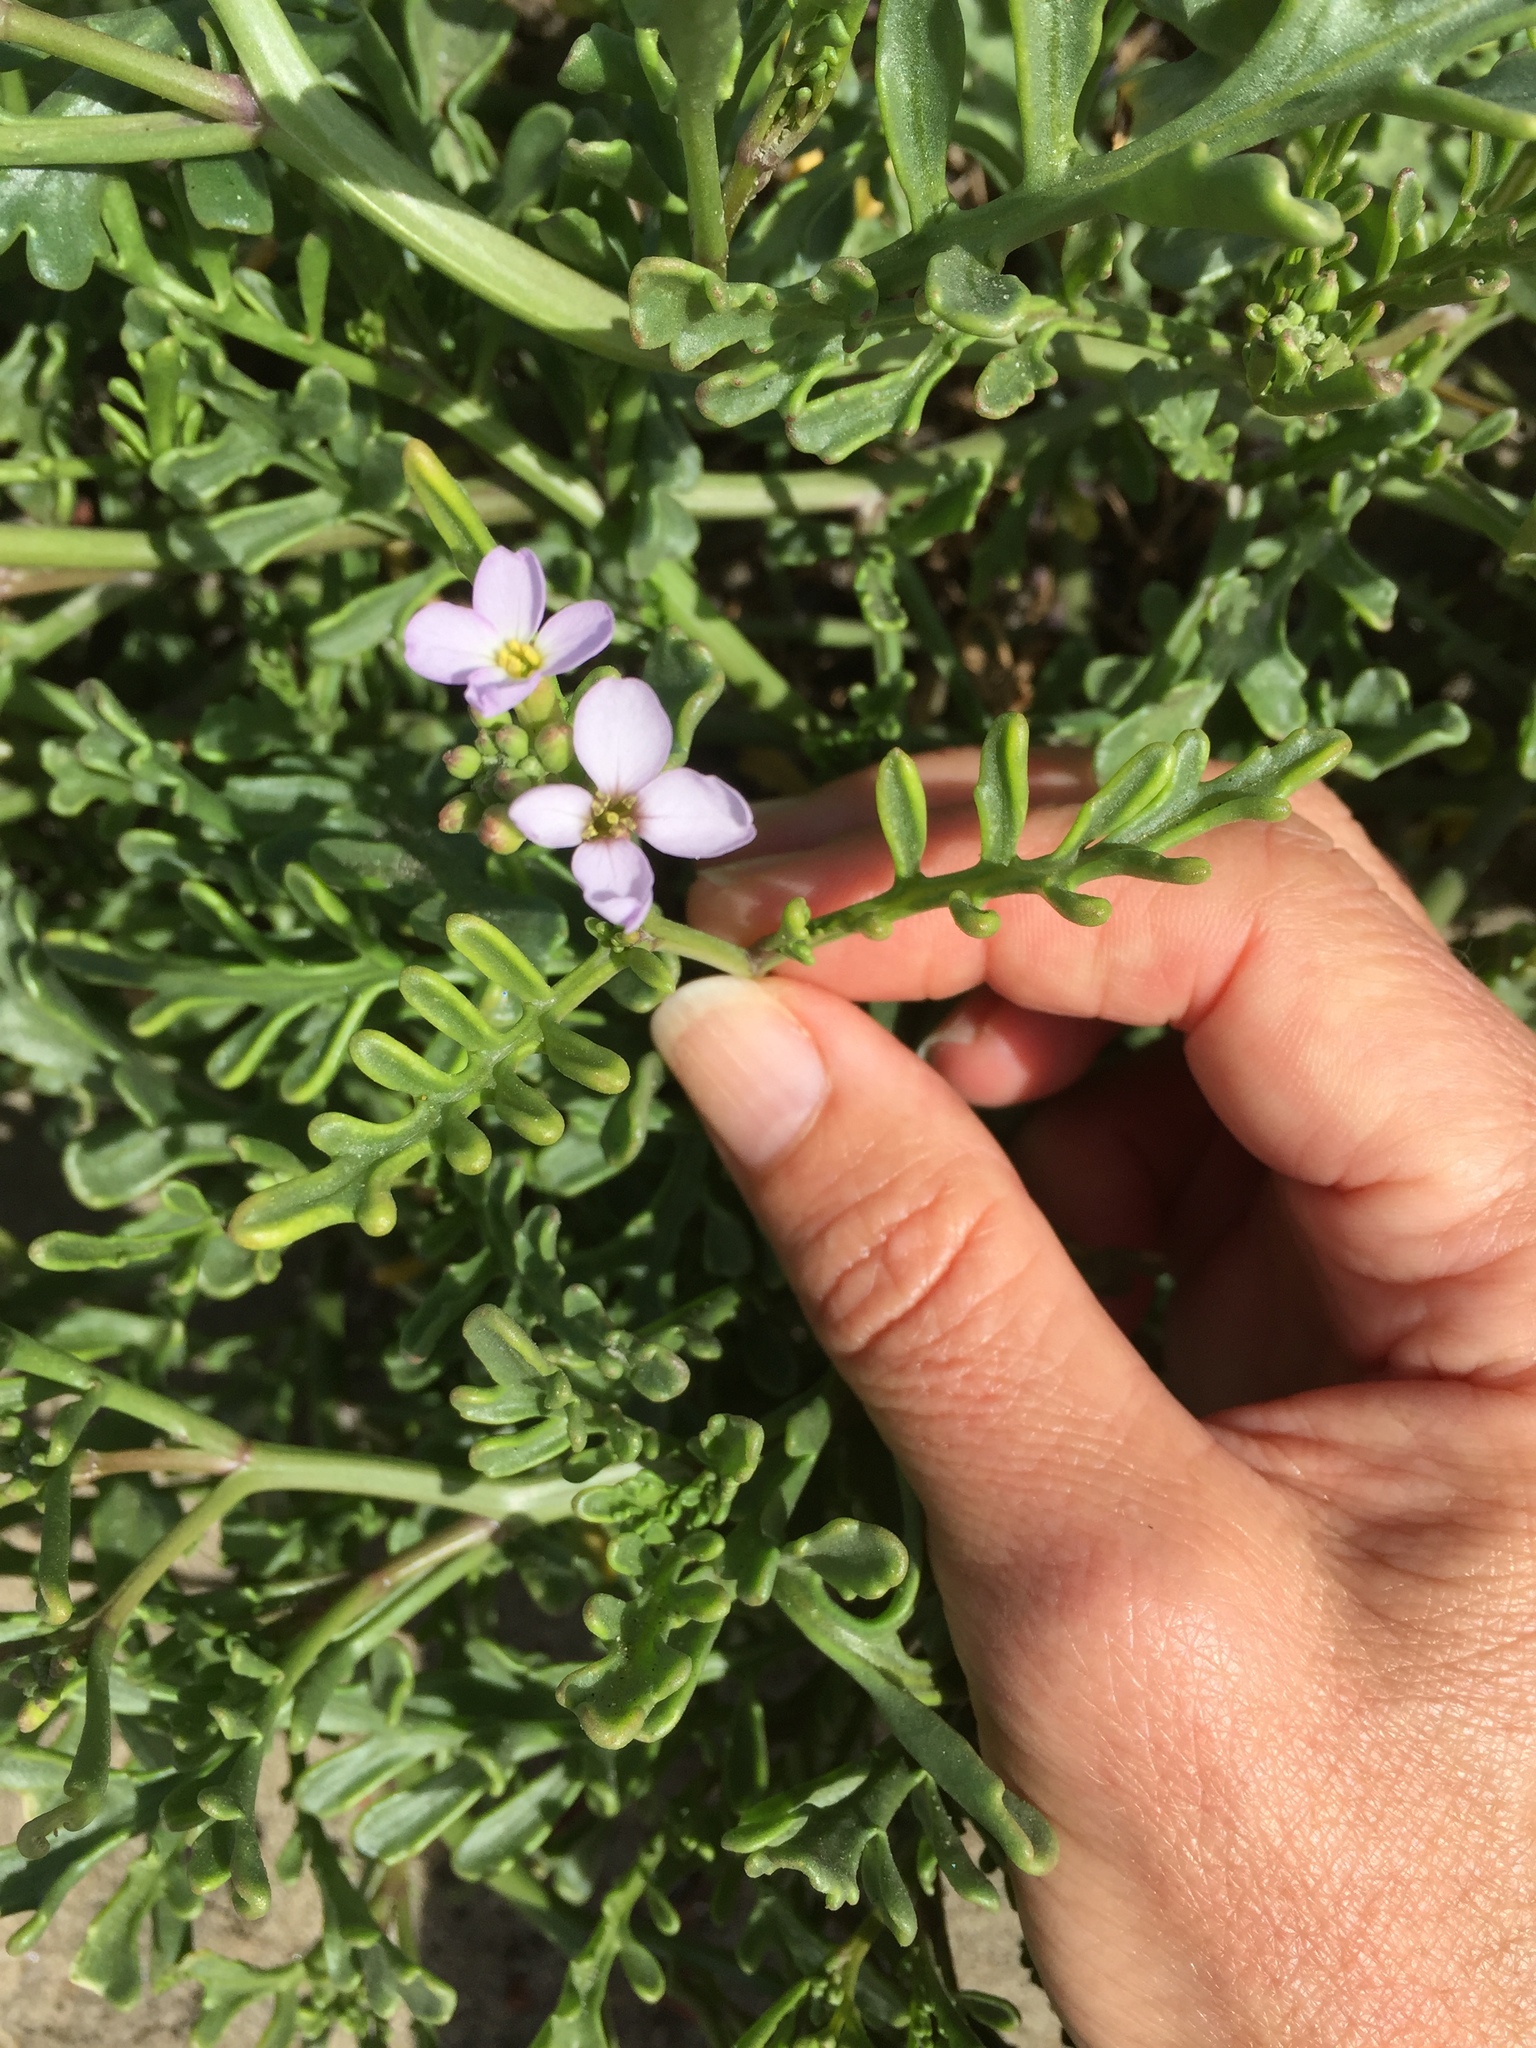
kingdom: Plantae
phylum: Tracheophyta
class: Magnoliopsida
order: Brassicales
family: Brassicaceae
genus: Cakile
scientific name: Cakile maritima
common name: Sea rocket
